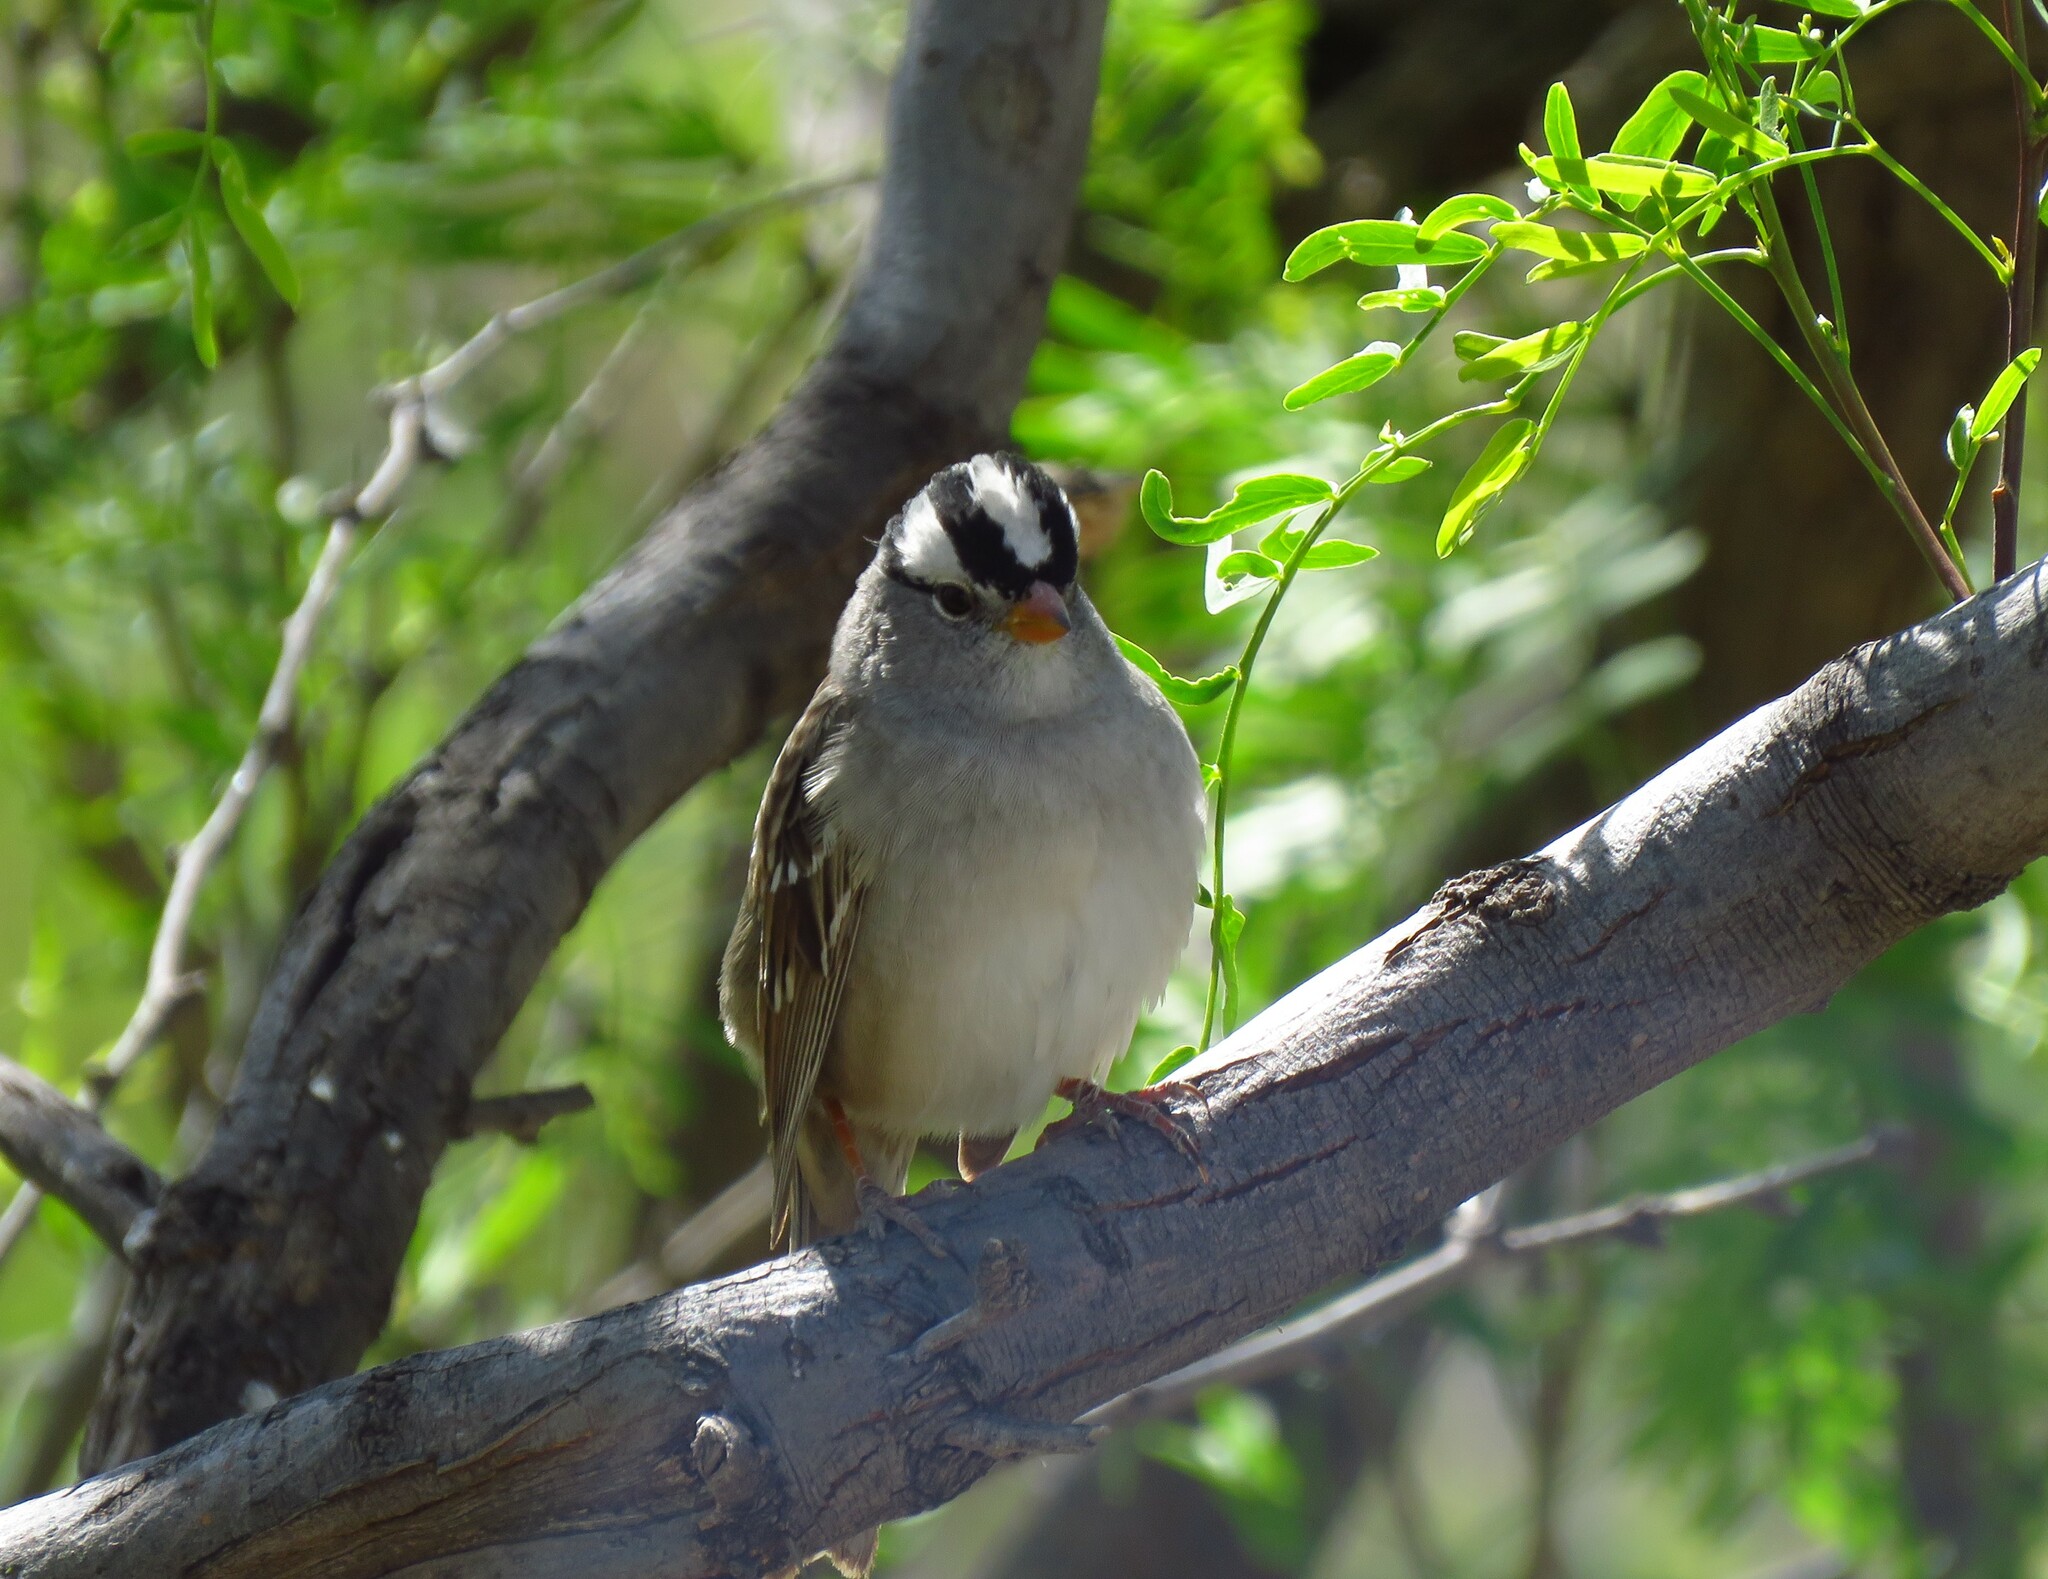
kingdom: Animalia
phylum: Chordata
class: Aves
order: Passeriformes
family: Passerellidae
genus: Zonotrichia
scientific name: Zonotrichia leucophrys
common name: White-crowned sparrow
